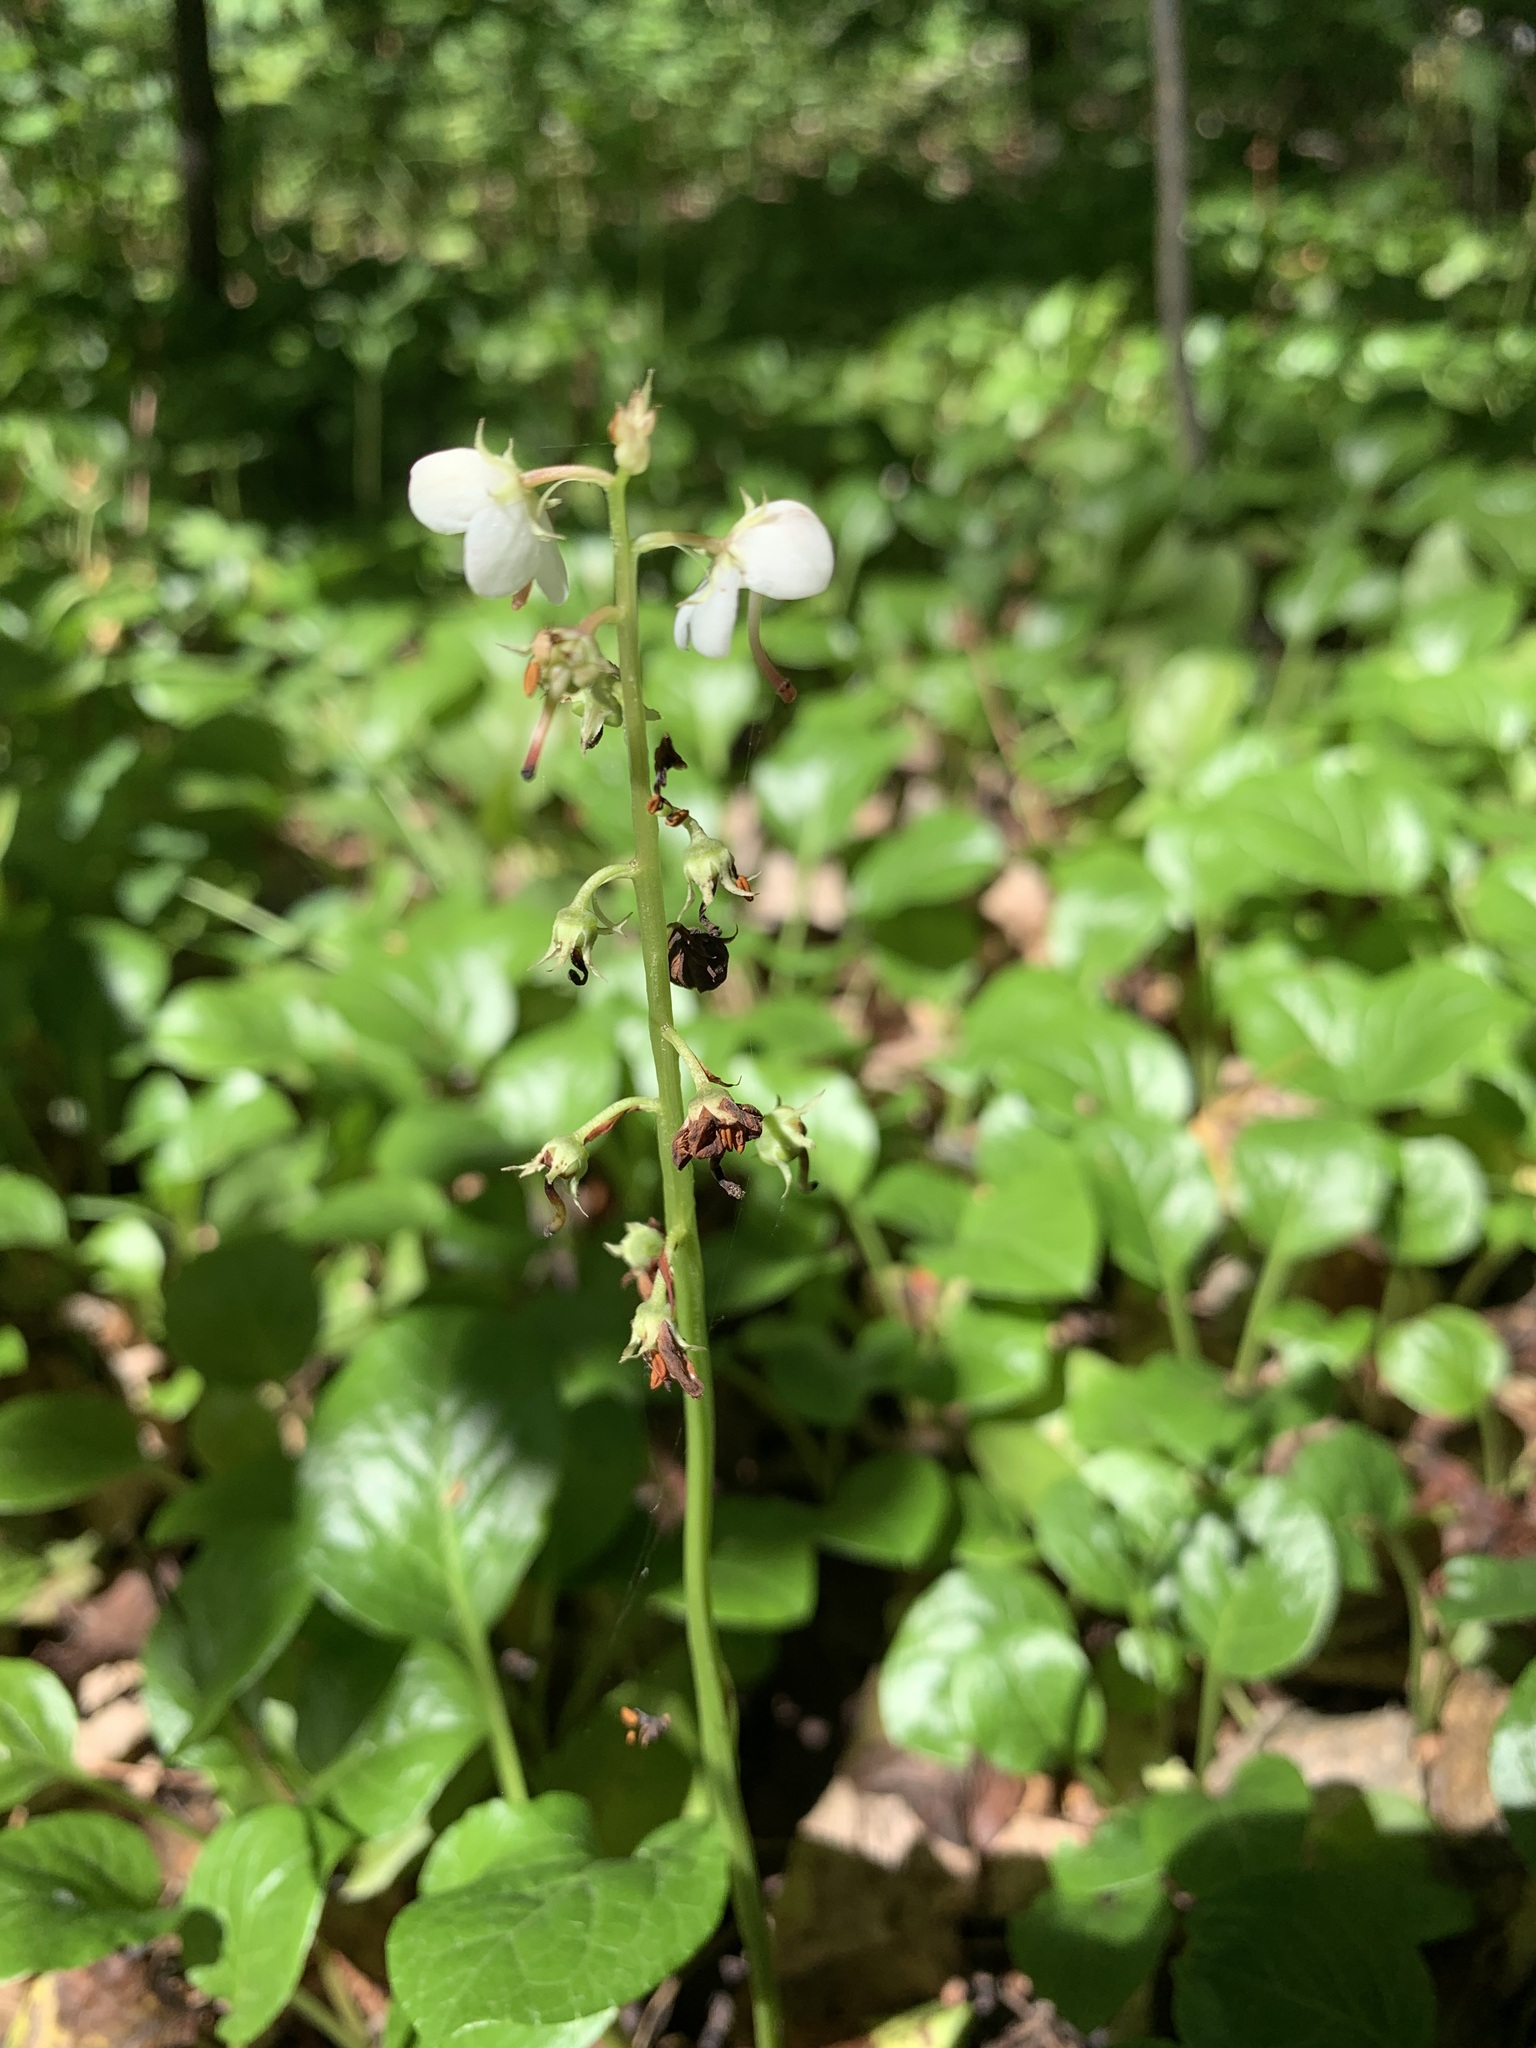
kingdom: Plantae
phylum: Tracheophyta
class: Magnoliopsida
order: Ericales
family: Ericaceae
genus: Pyrola
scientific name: Pyrola rotundifolia
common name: Round-leaved wintergreen
